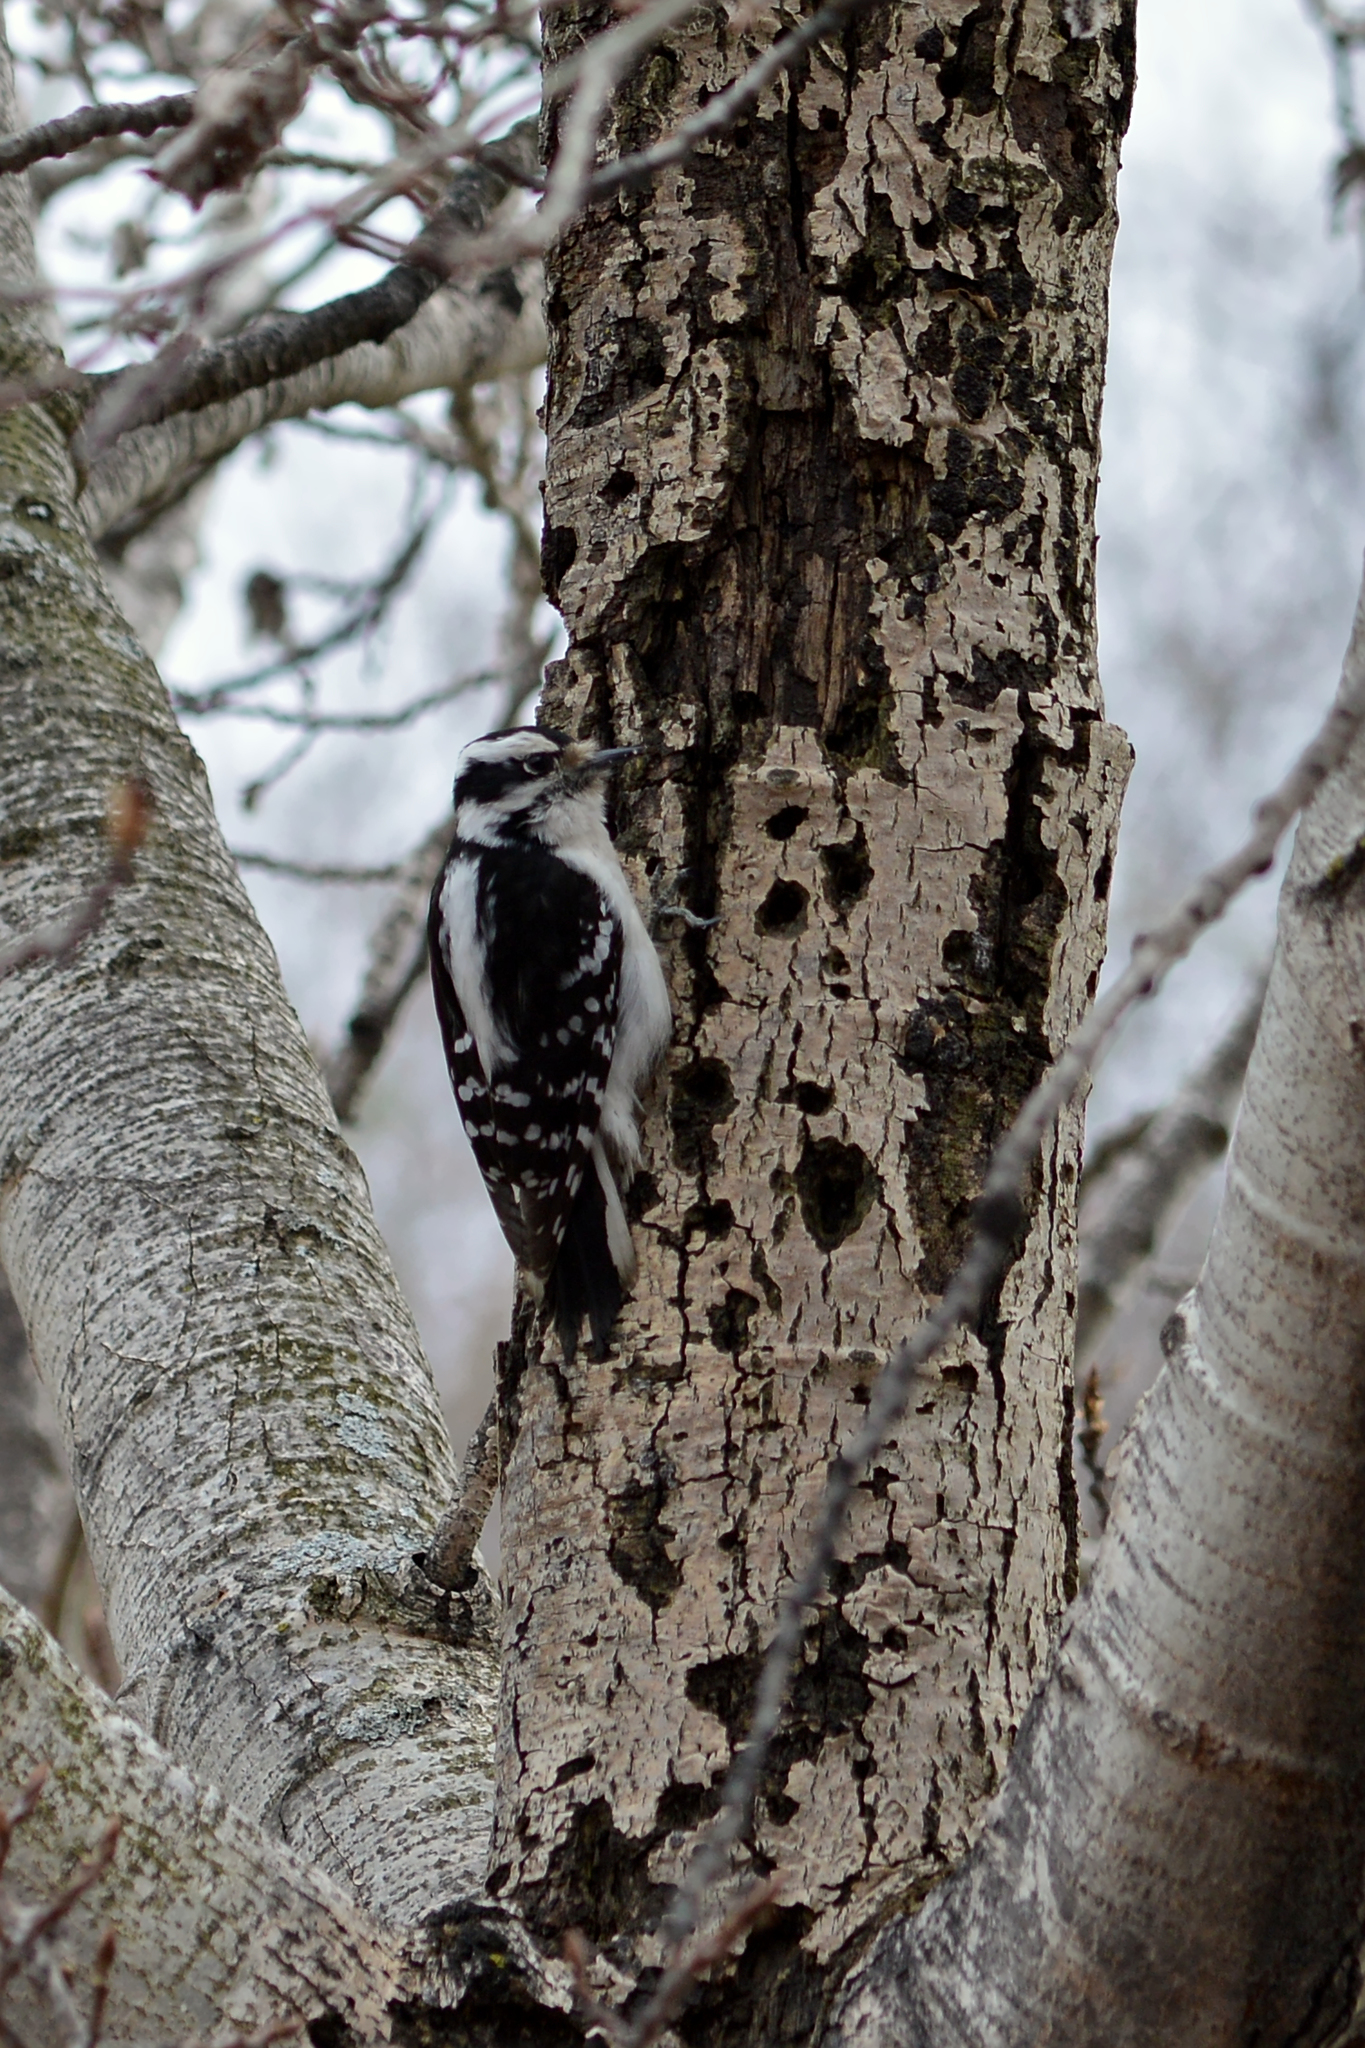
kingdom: Animalia
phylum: Chordata
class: Aves
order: Piciformes
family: Picidae
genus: Leuconotopicus
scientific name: Leuconotopicus villosus
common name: Hairy woodpecker
